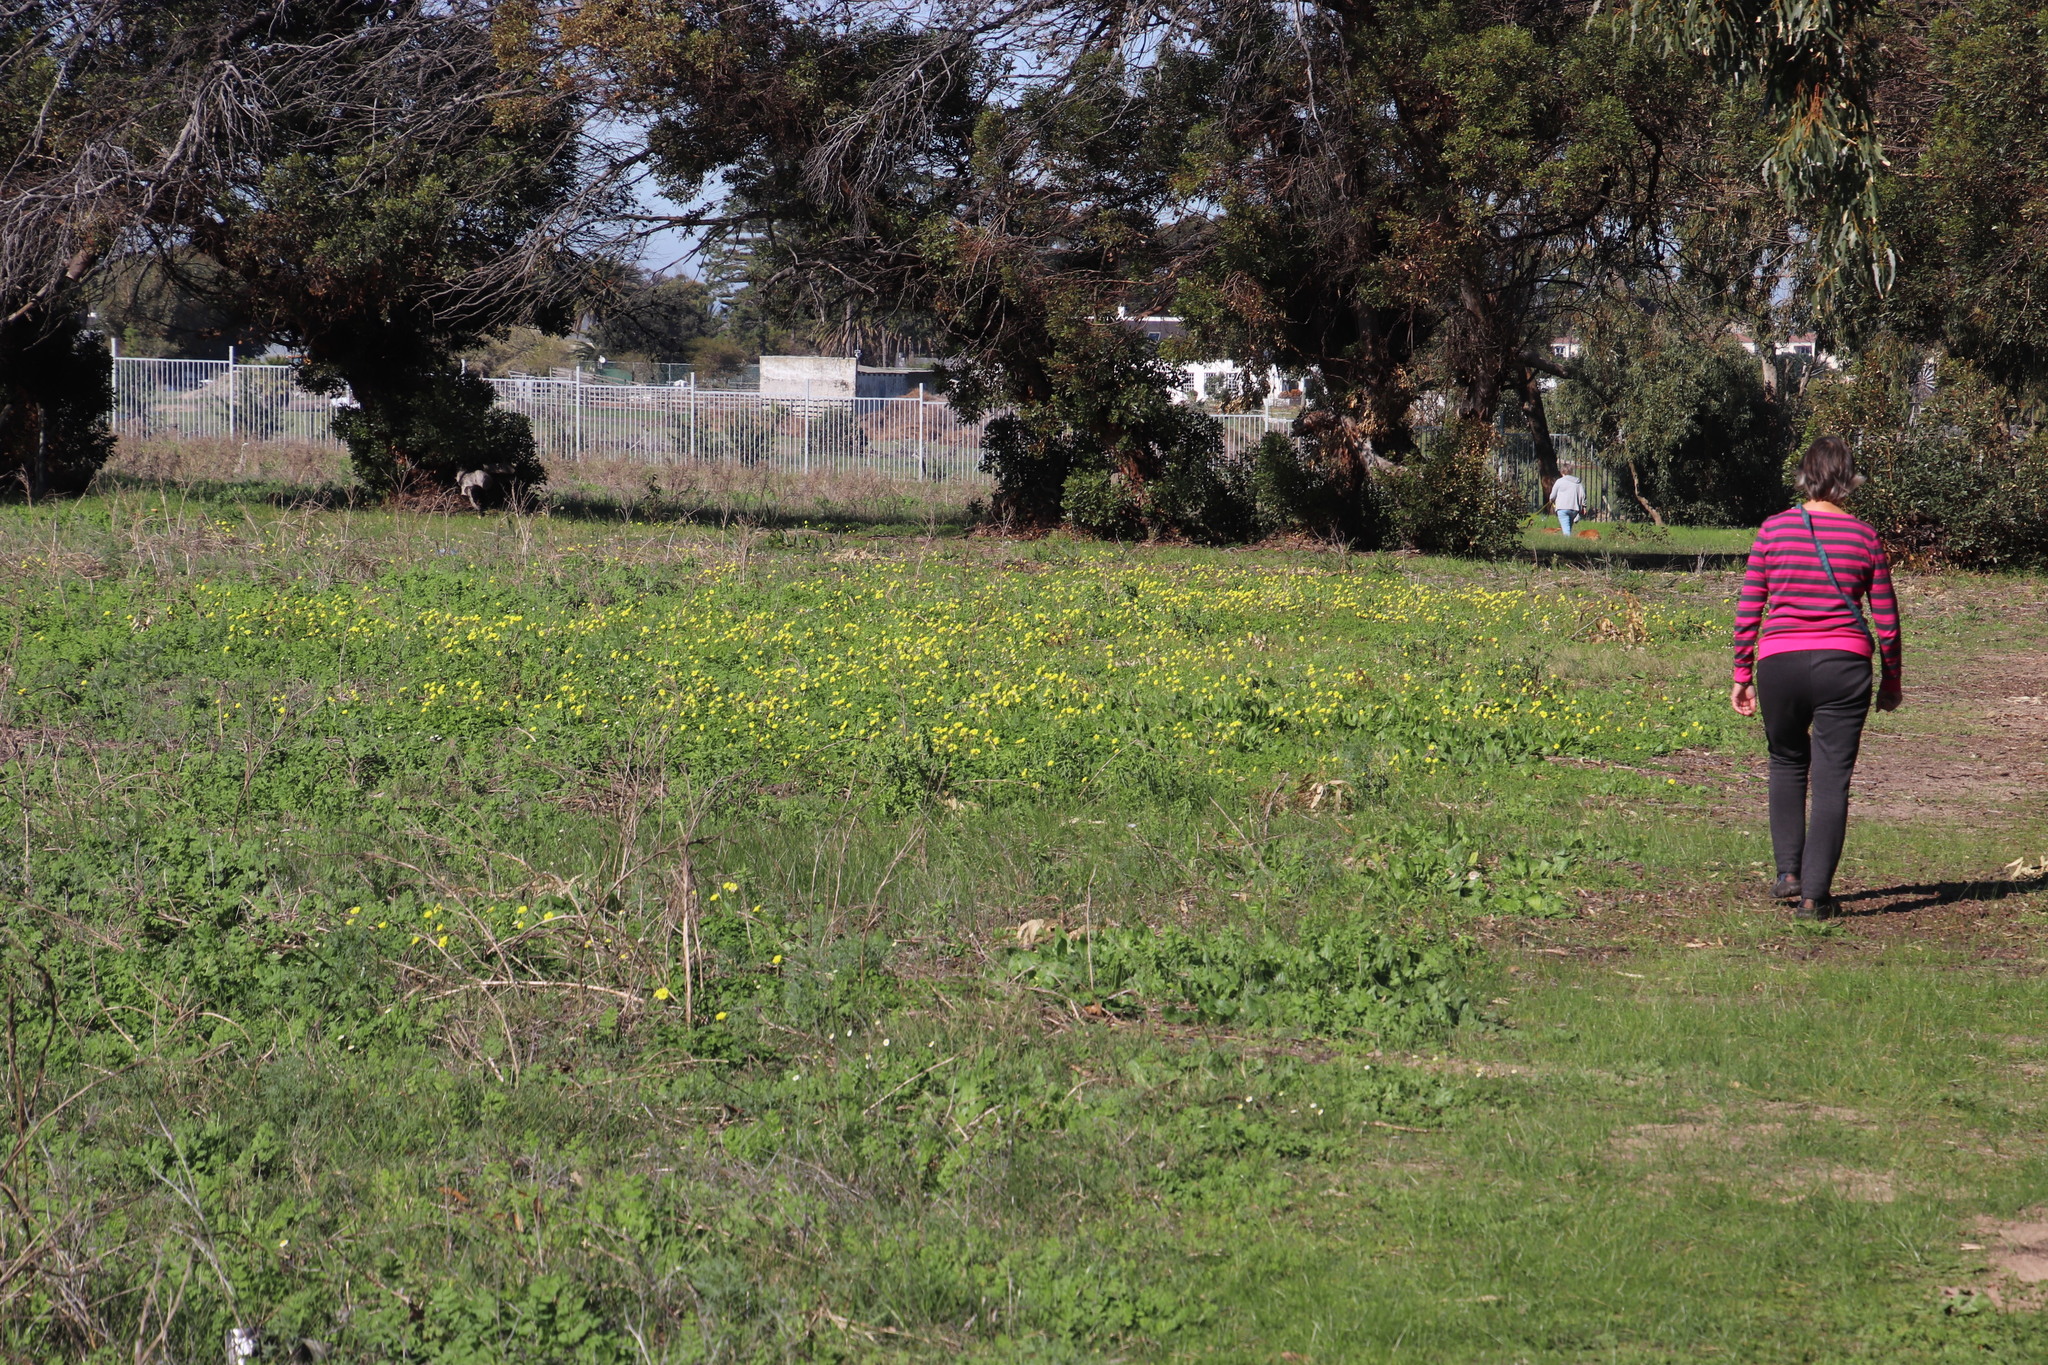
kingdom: Plantae
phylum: Tracheophyta
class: Magnoliopsida
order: Oxalidales
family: Oxalidaceae
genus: Oxalis
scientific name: Oxalis pes-caprae
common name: Bermuda-buttercup
